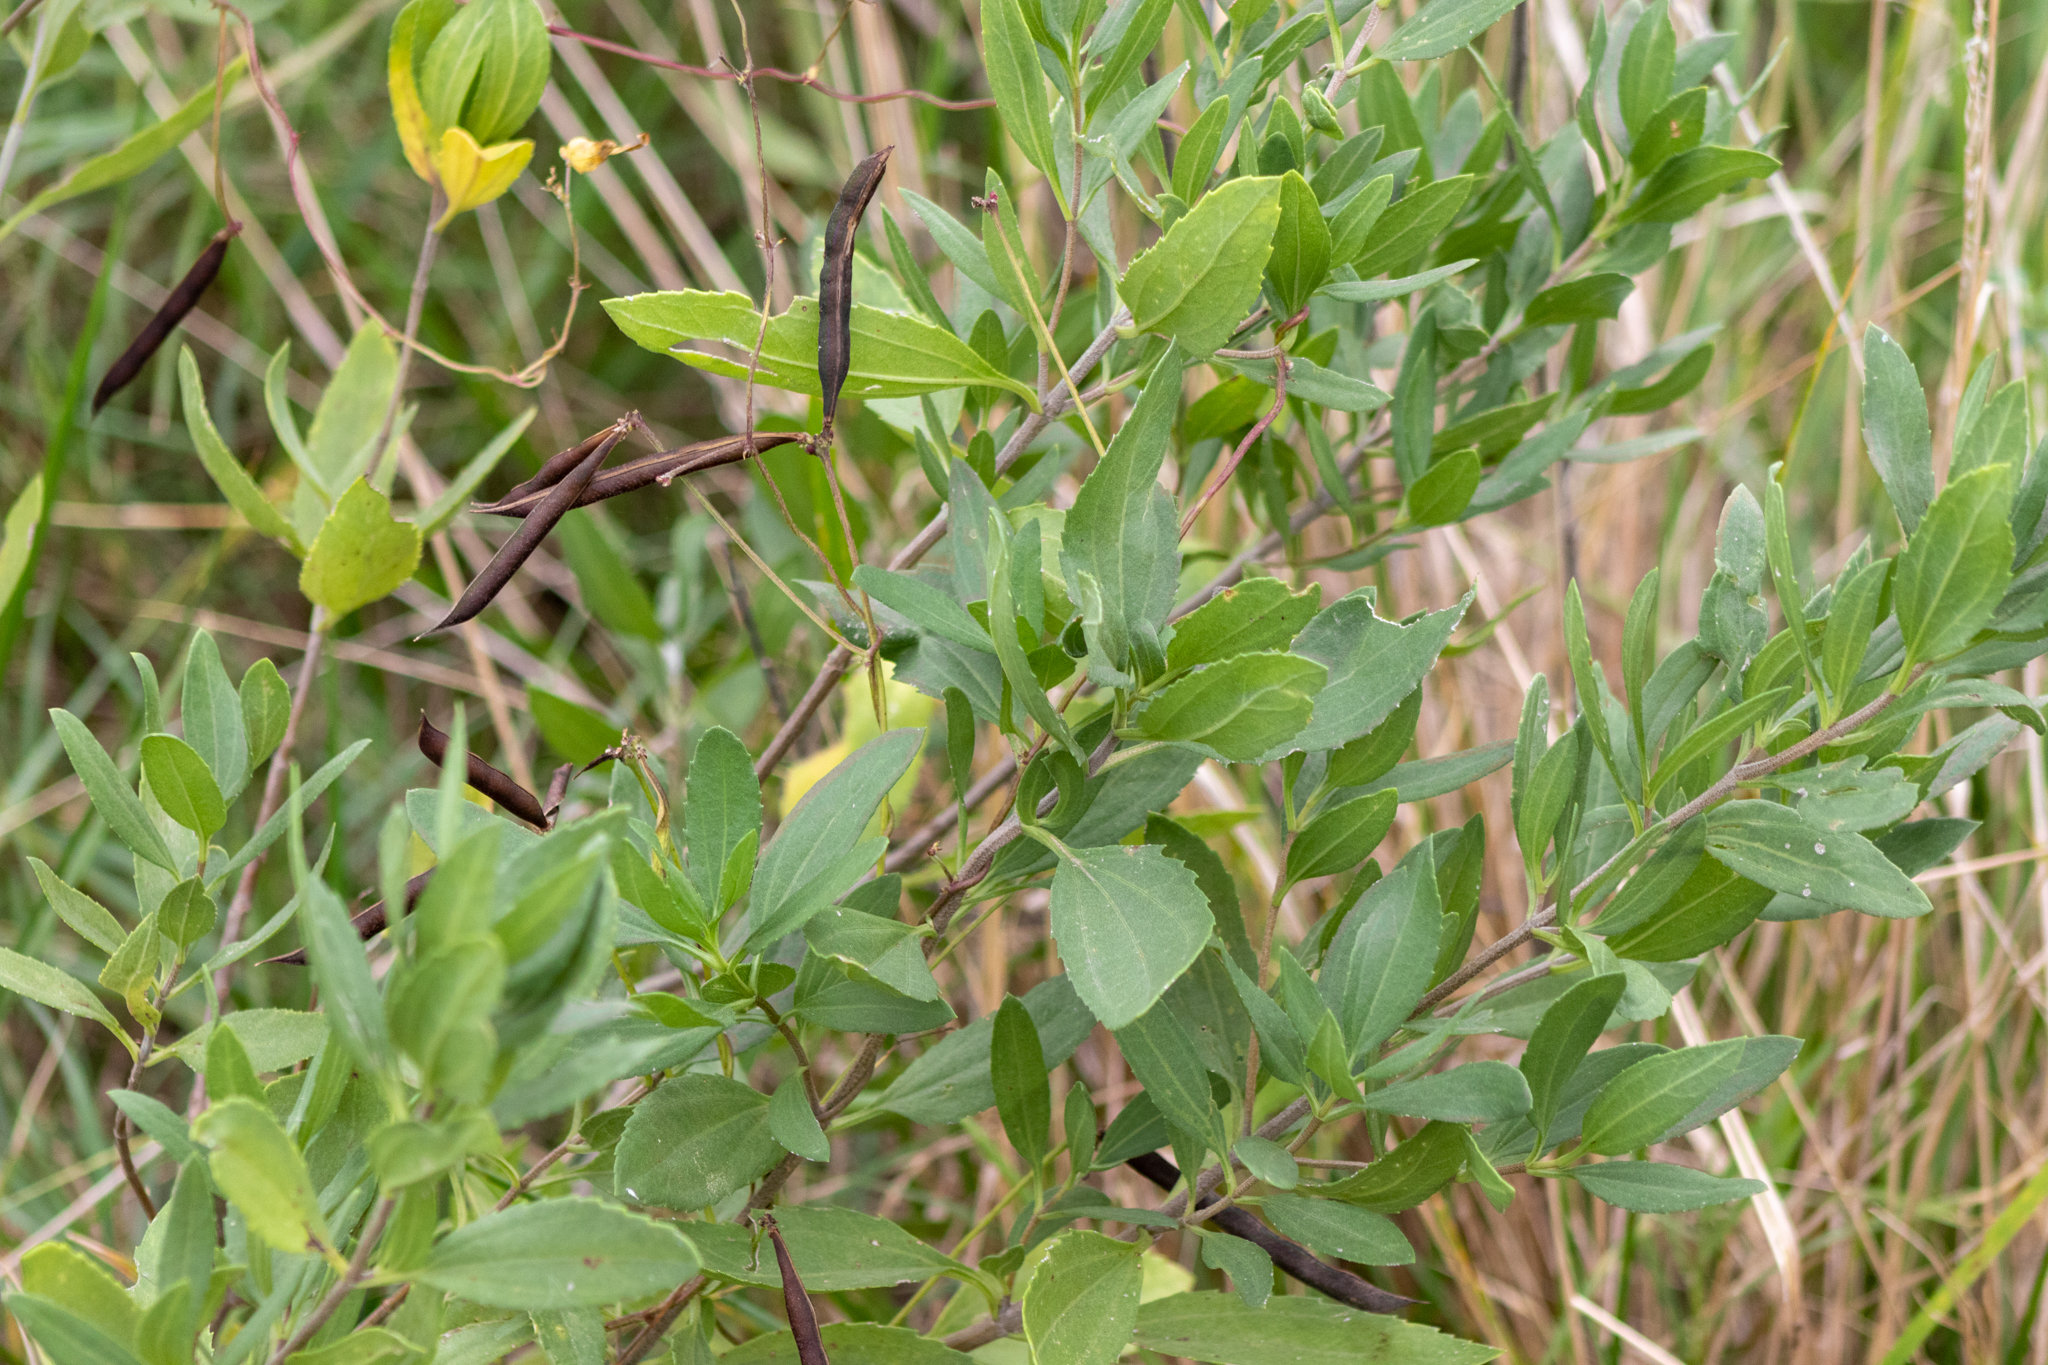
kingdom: Plantae
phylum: Tracheophyta
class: Magnoliopsida
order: Asterales
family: Asteraceae
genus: Iva
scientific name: Iva frutescens
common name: Big-leaved marsh-elder
